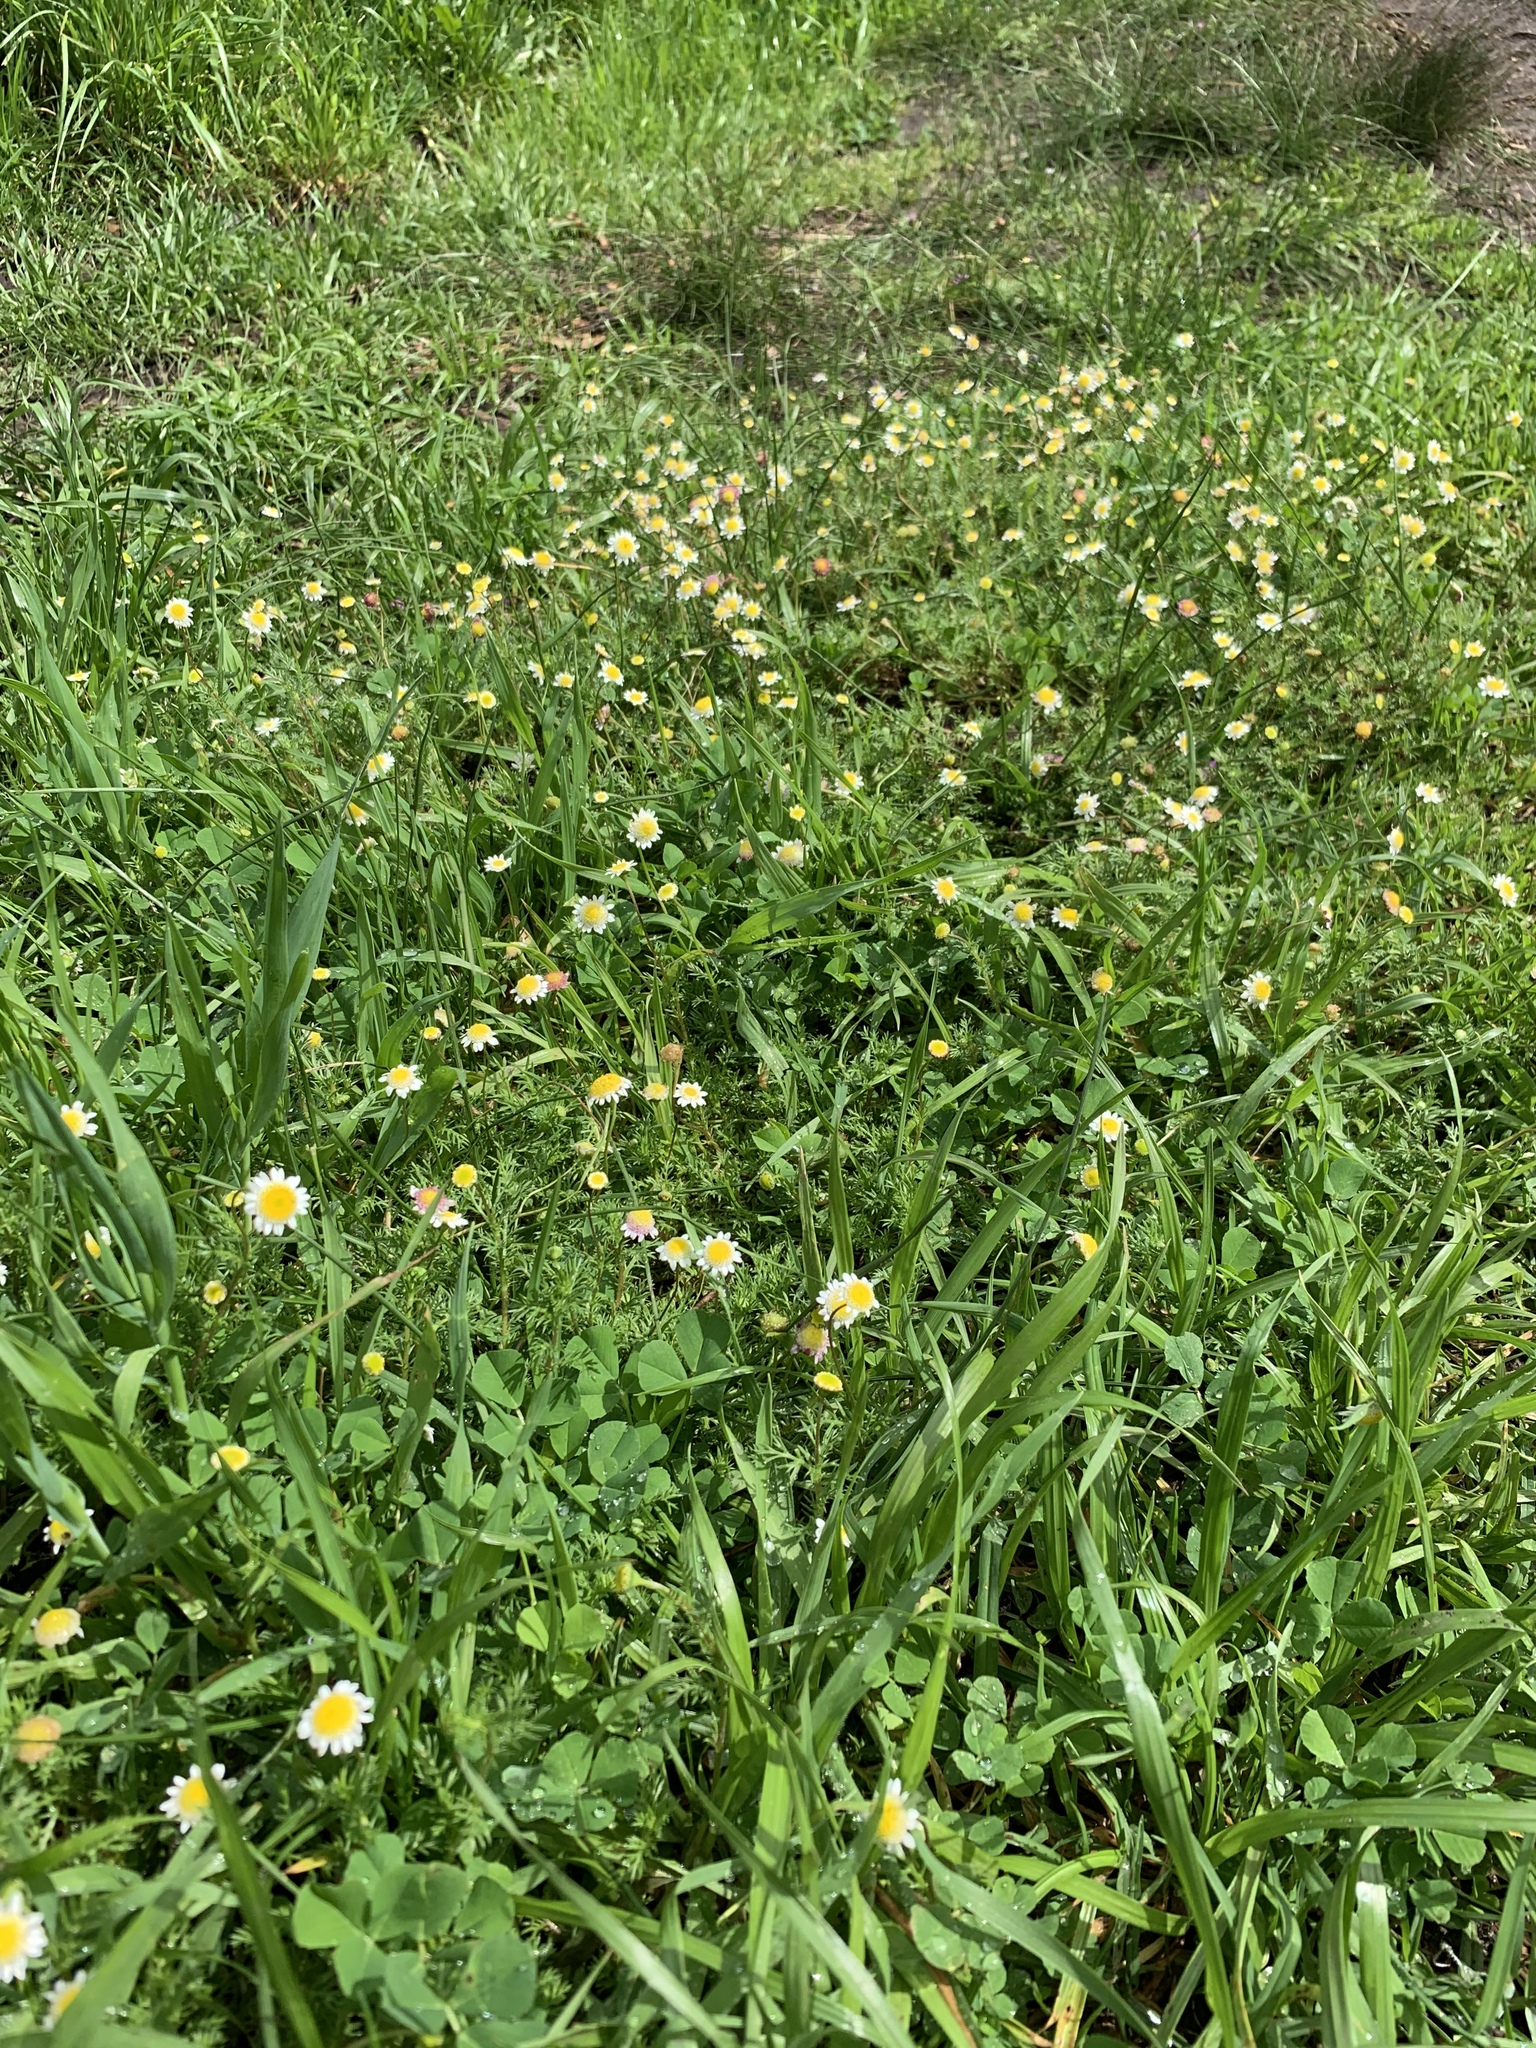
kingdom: Plantae
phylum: Tracheophyta
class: Magnoliopsida
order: Asterales
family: Asteraceae
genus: Cotula
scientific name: Cotula turbinata
